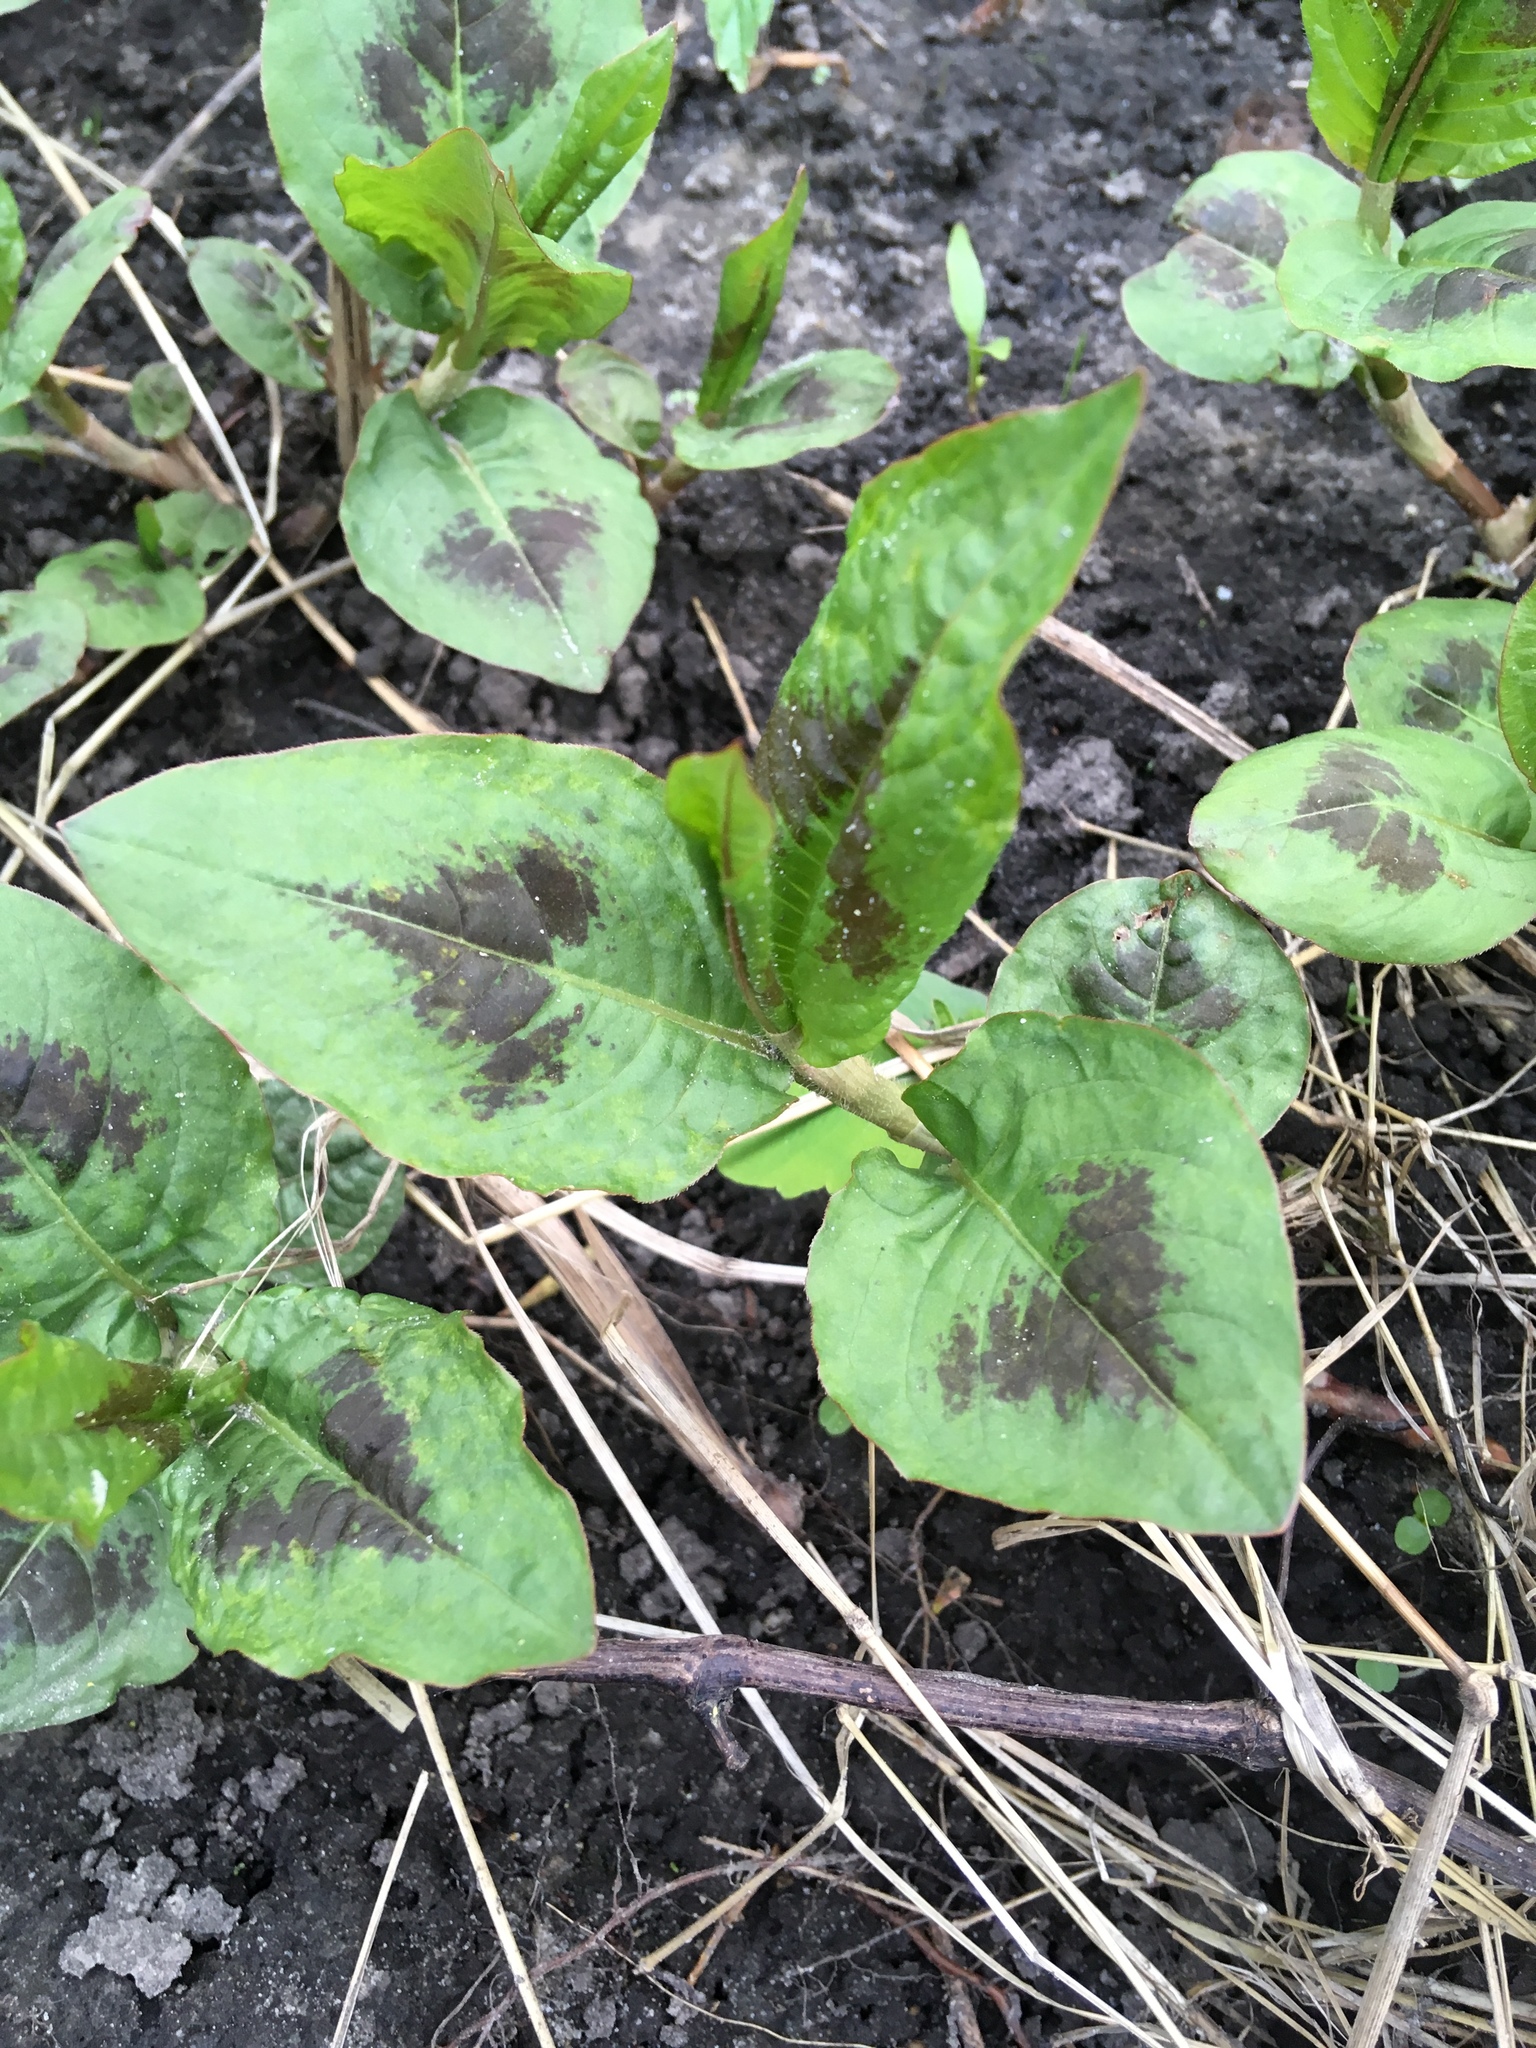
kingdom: Plantae
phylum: Tracheophyta
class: Magnoliopsida
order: Caryophyllales
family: Polygonaceae
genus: Persicaria
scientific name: Persicaria virginiana
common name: Jumpseed
